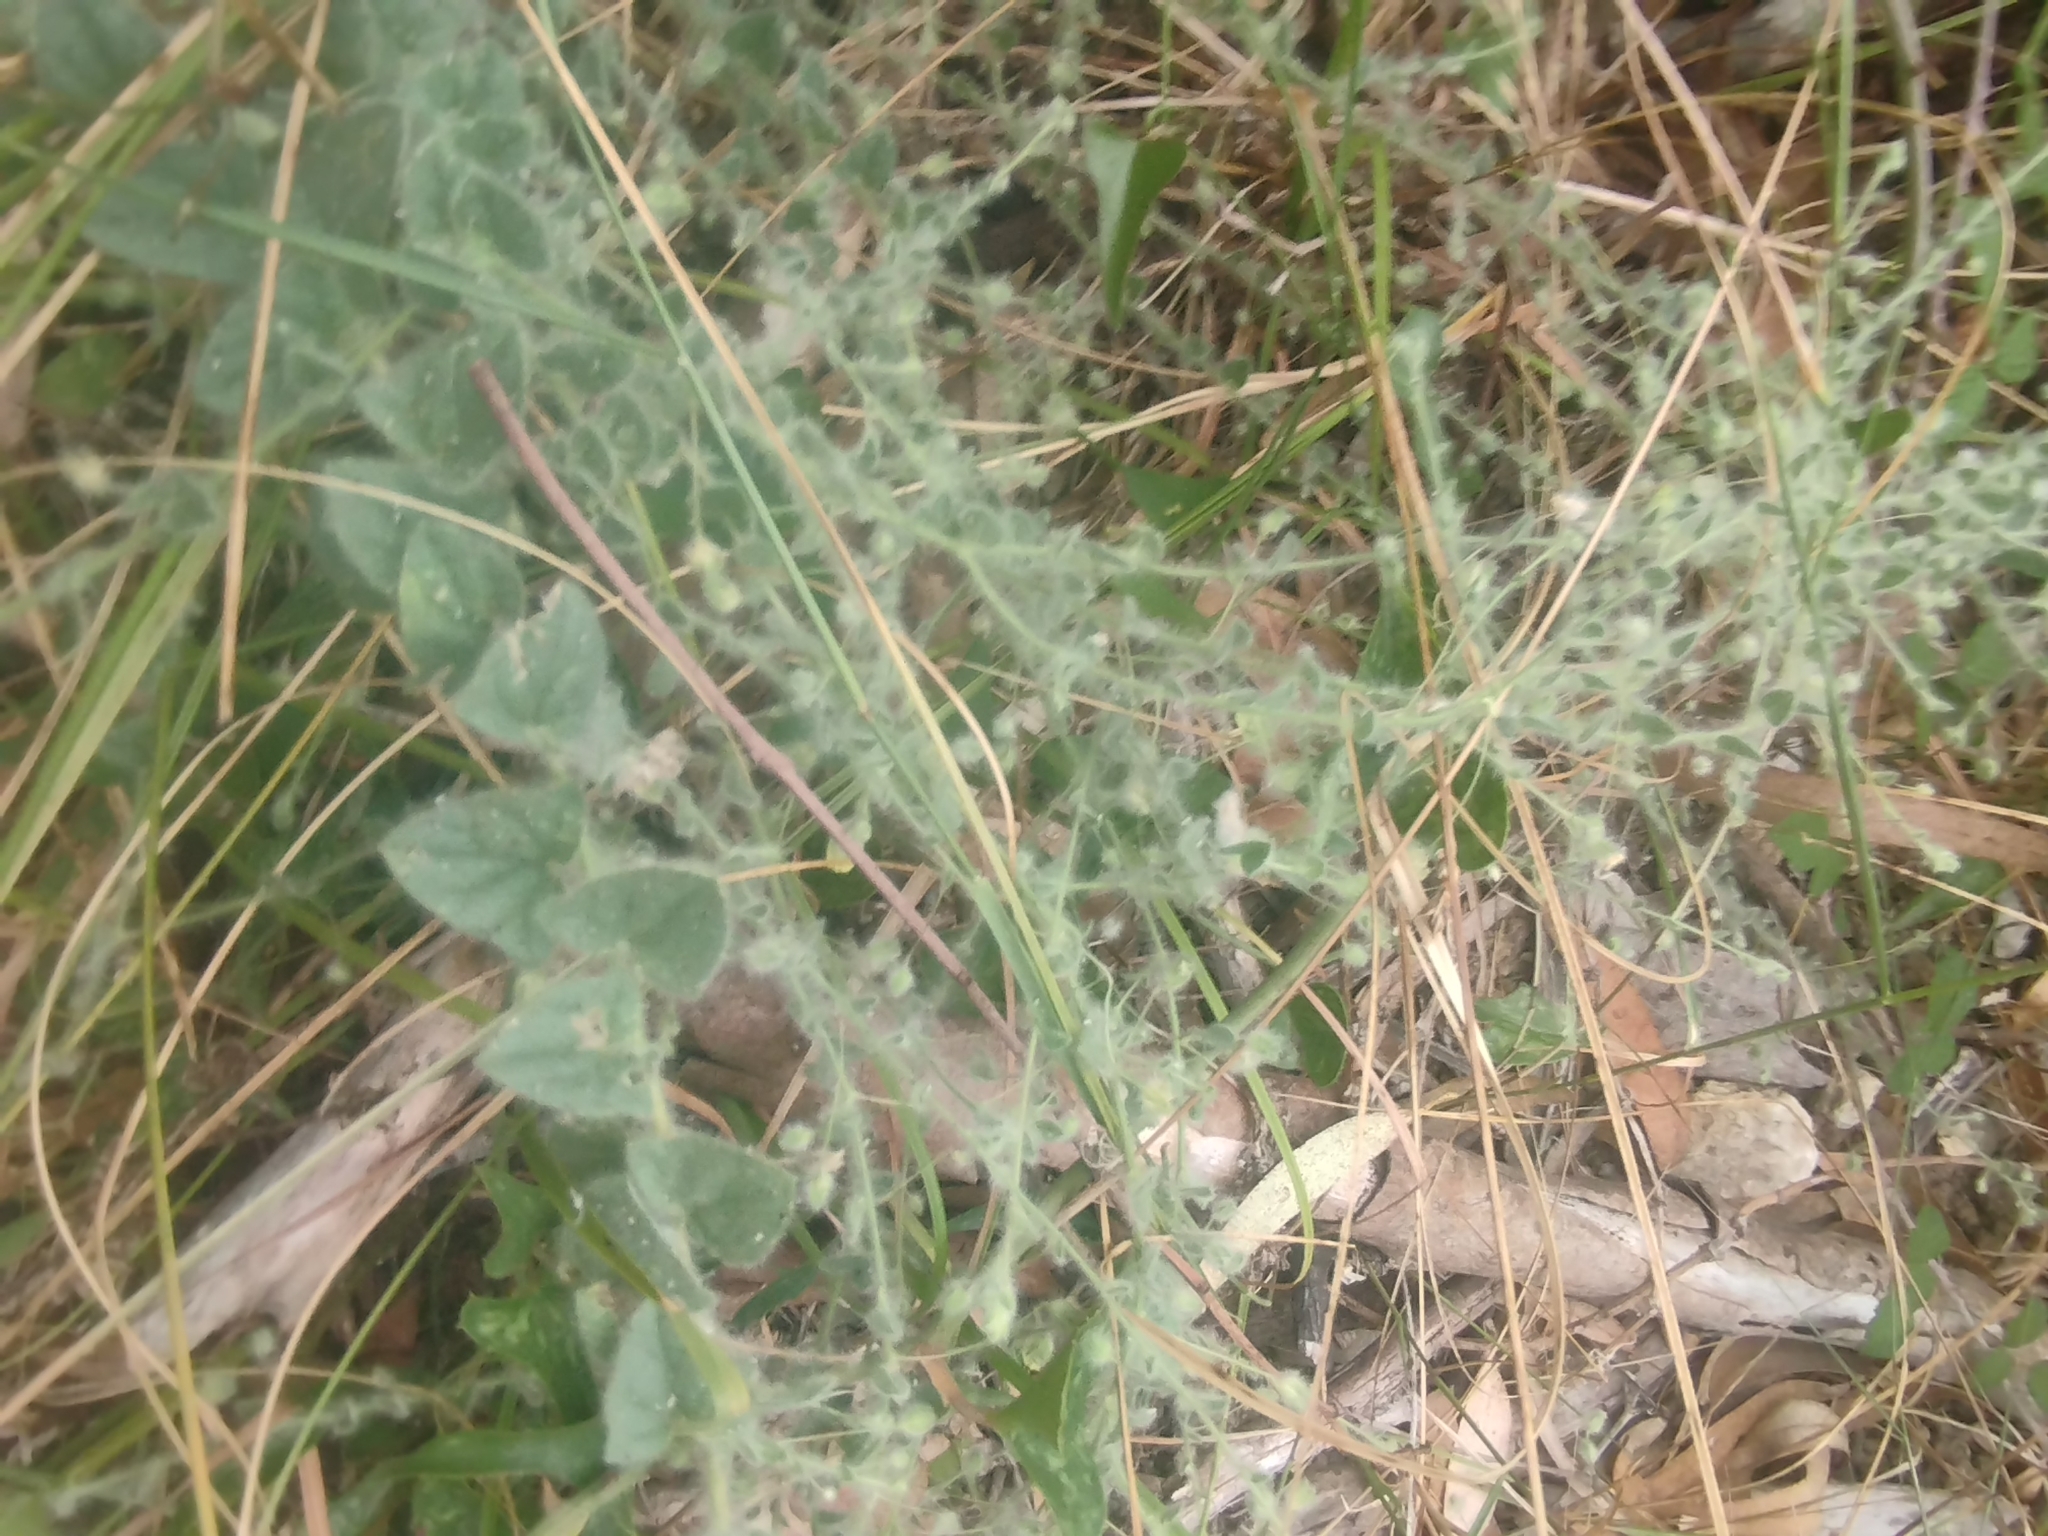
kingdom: Plantae
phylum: Tracheophyta
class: Magnoliopsida
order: Lamiales
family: Plantaginaceae
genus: Kickxia
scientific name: Kickxia elatine
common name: Sharp-leaved fluellen
